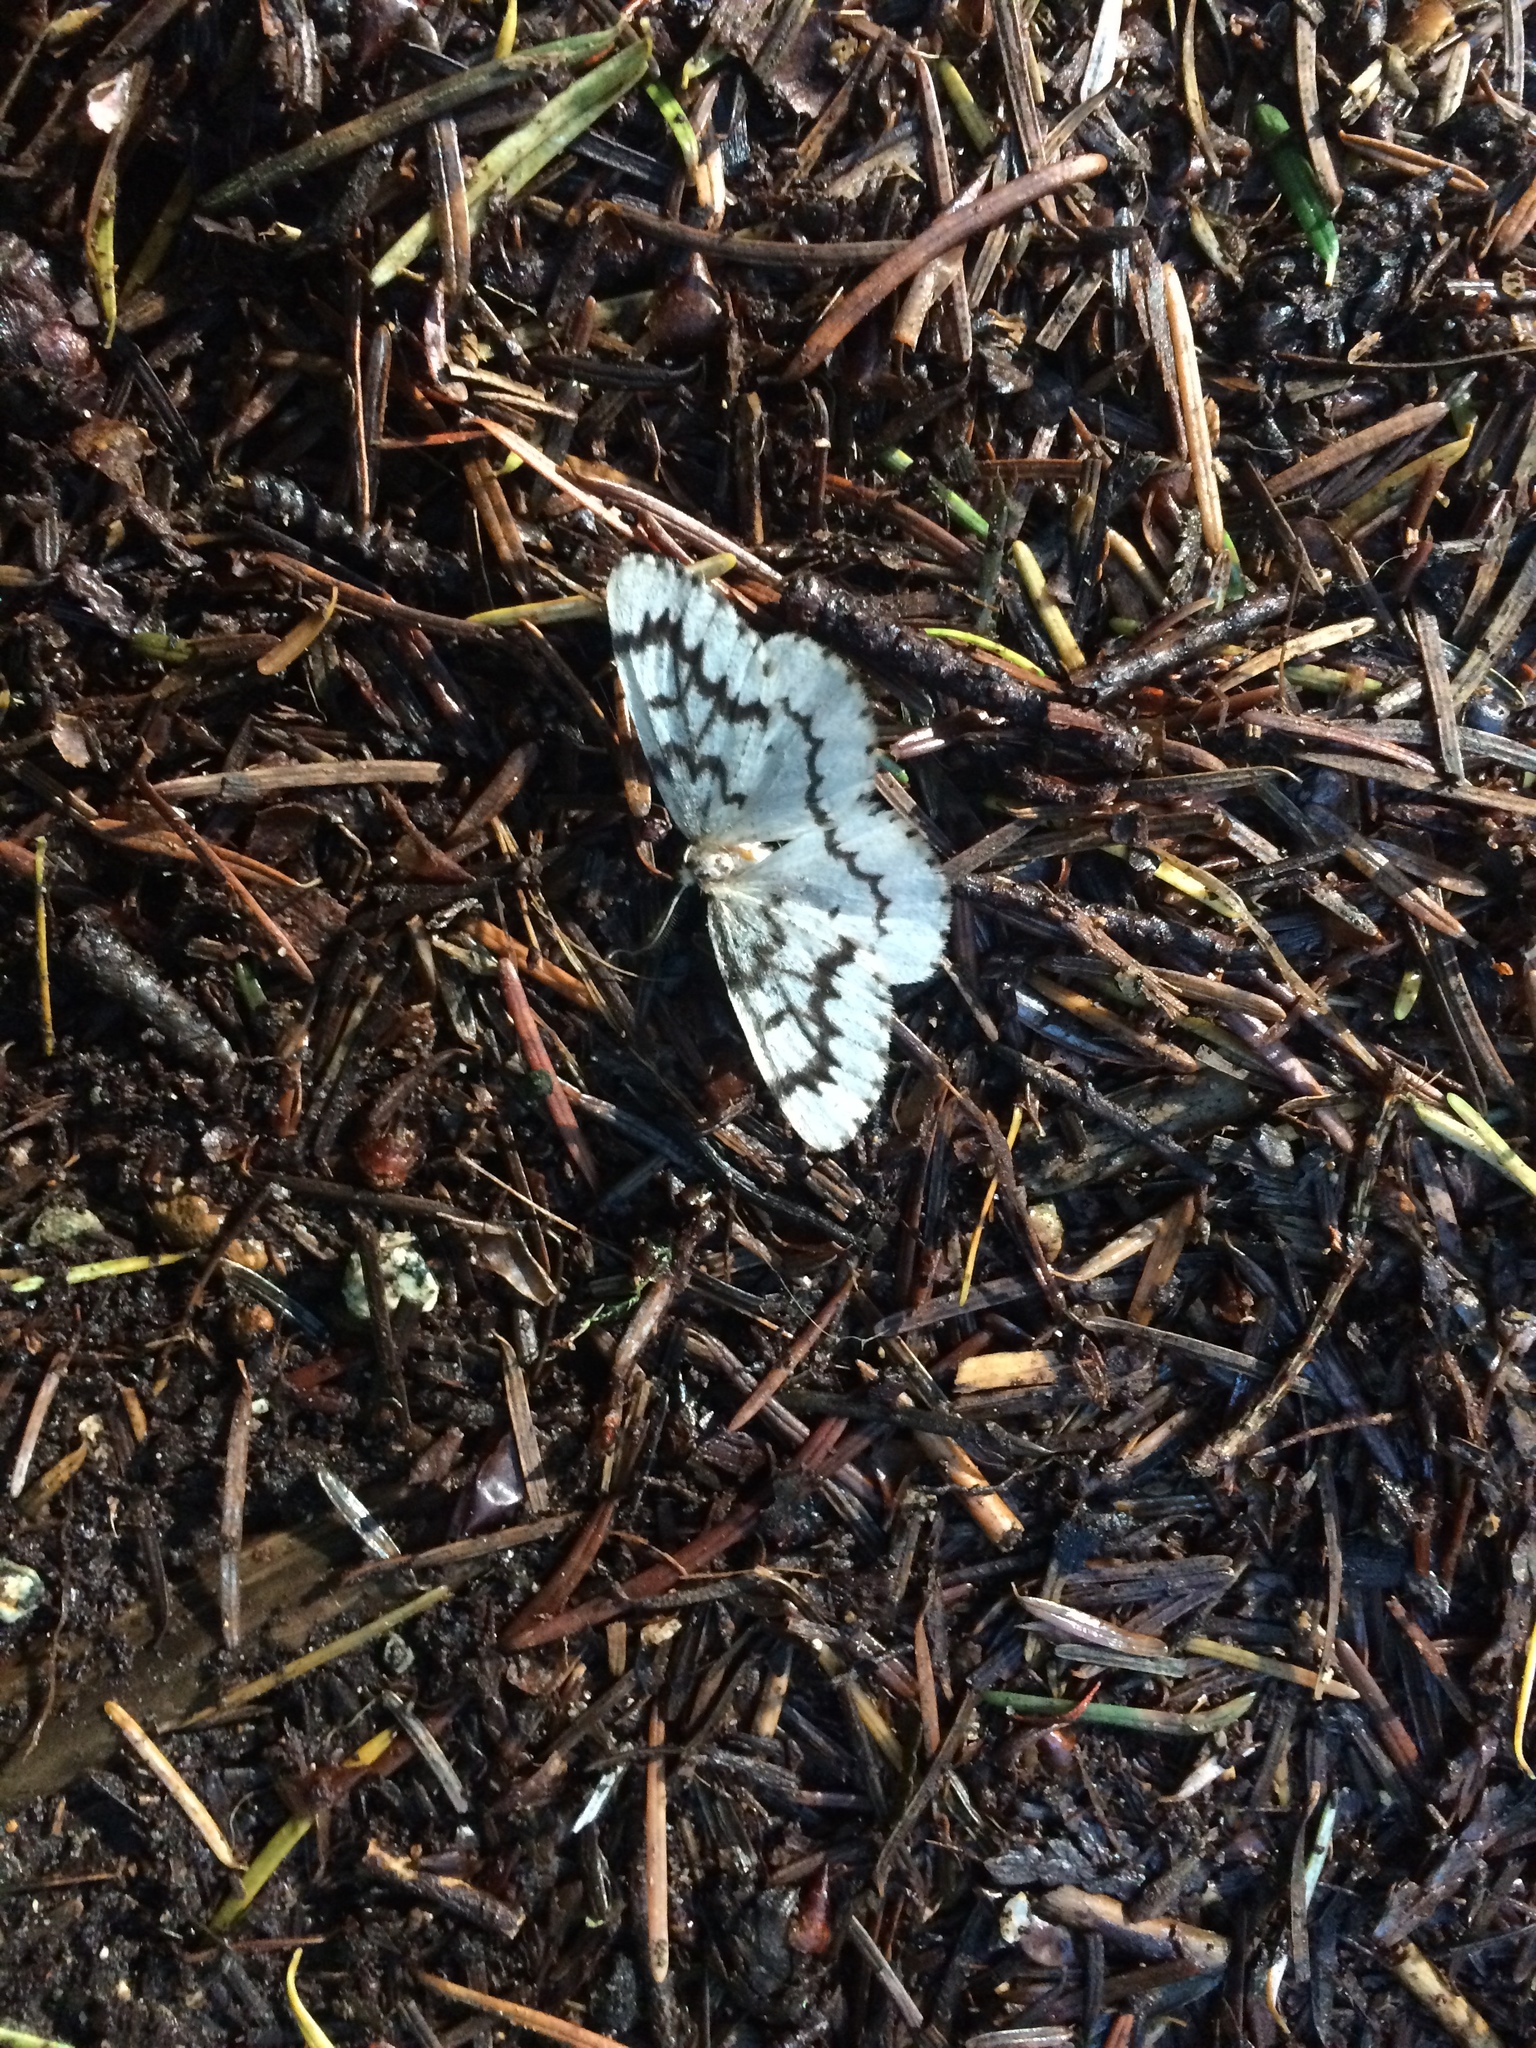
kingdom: Animalia
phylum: Arthropoda
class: Insecta
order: Lepidoptera
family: Geometridae
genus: Nepytia
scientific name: Nepytia phantasmaria
